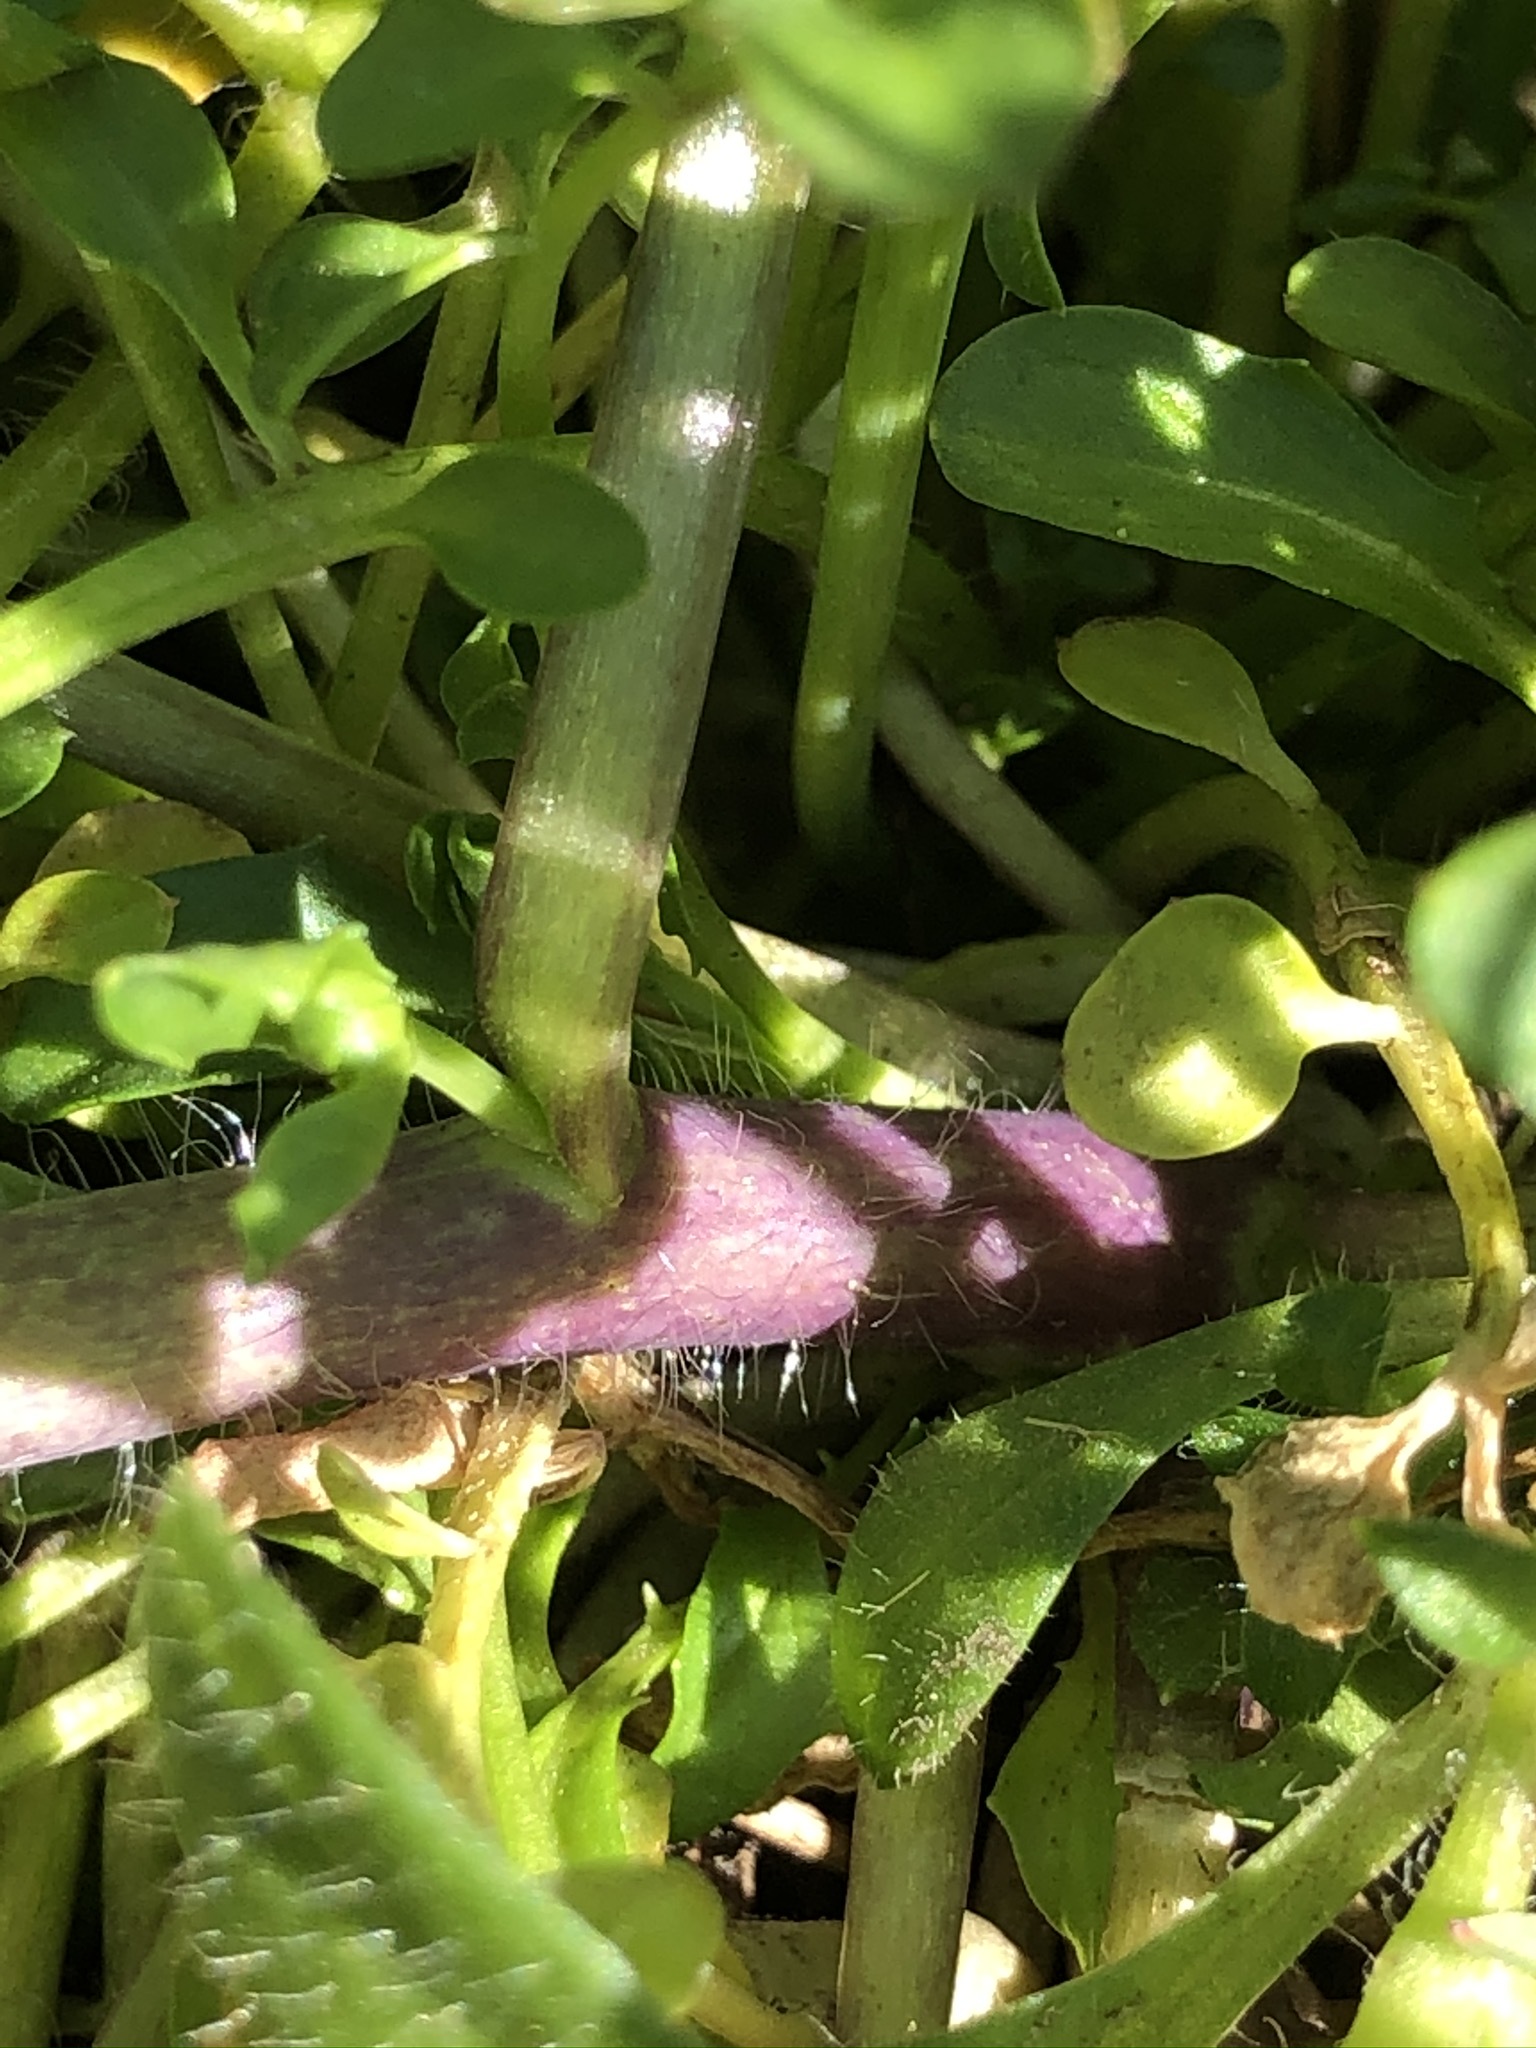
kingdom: Plantae
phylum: Tracheophyta
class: Magnoliopsida
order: Brassicales
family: Brassicaceae
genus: Mummenhoffia
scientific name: Mummenhoffia alliacea
